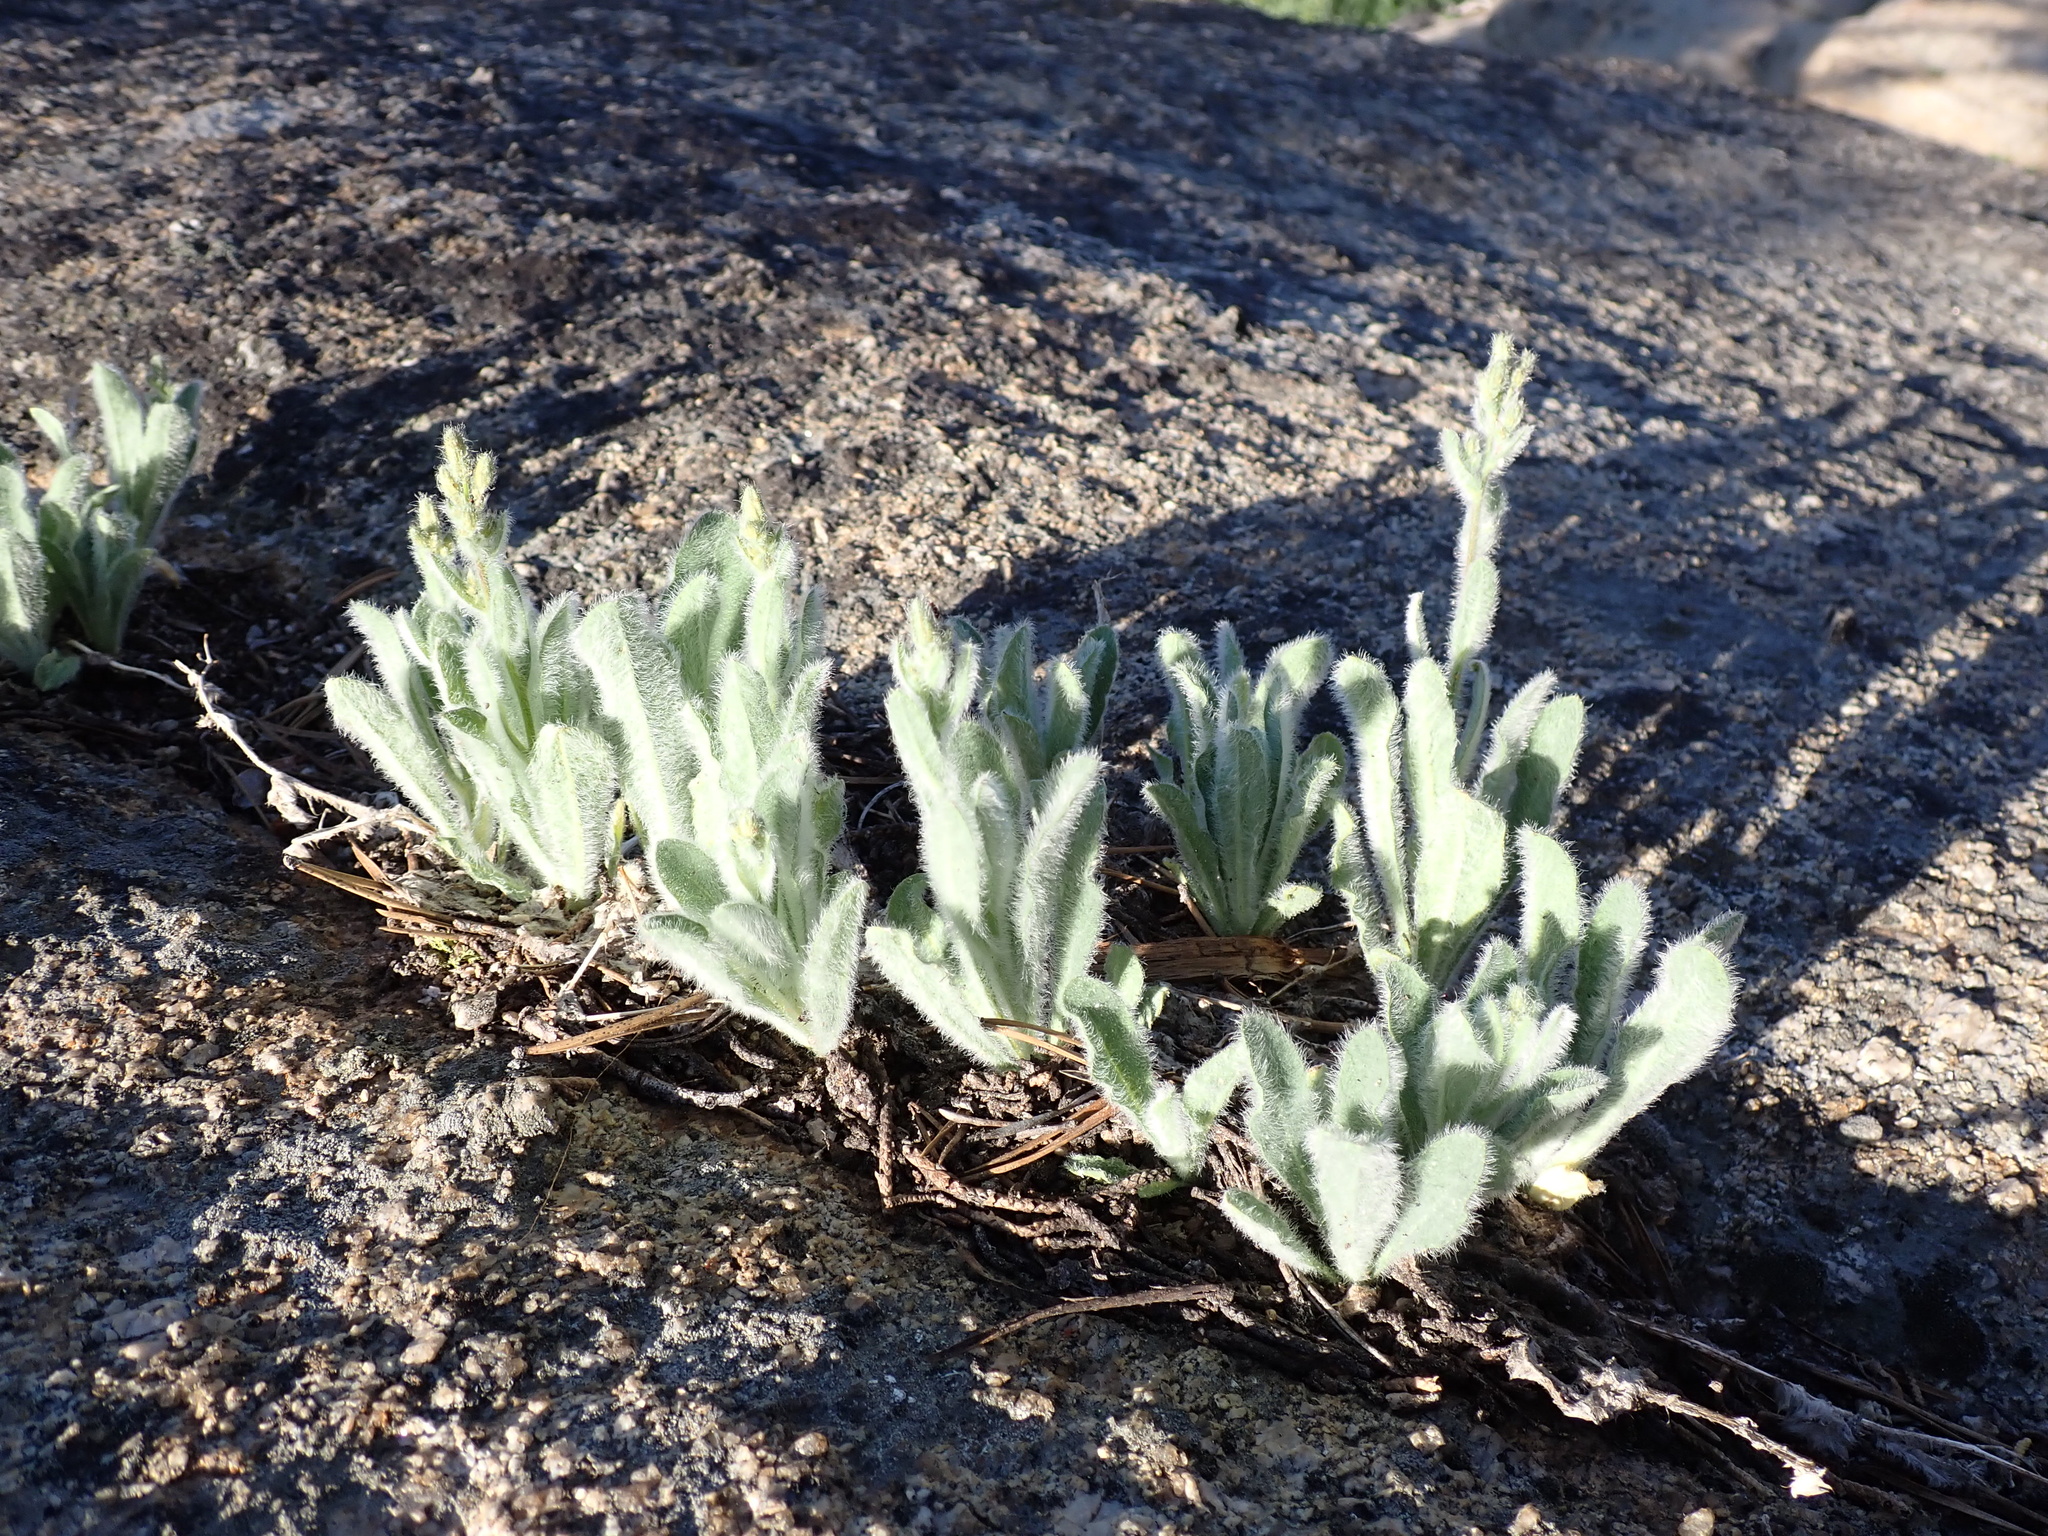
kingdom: Plantae
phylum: Tracheophyta
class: Magnoliopsida
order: Asterales
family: Asteraceae
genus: Hieracium
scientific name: Hieracium horridum
